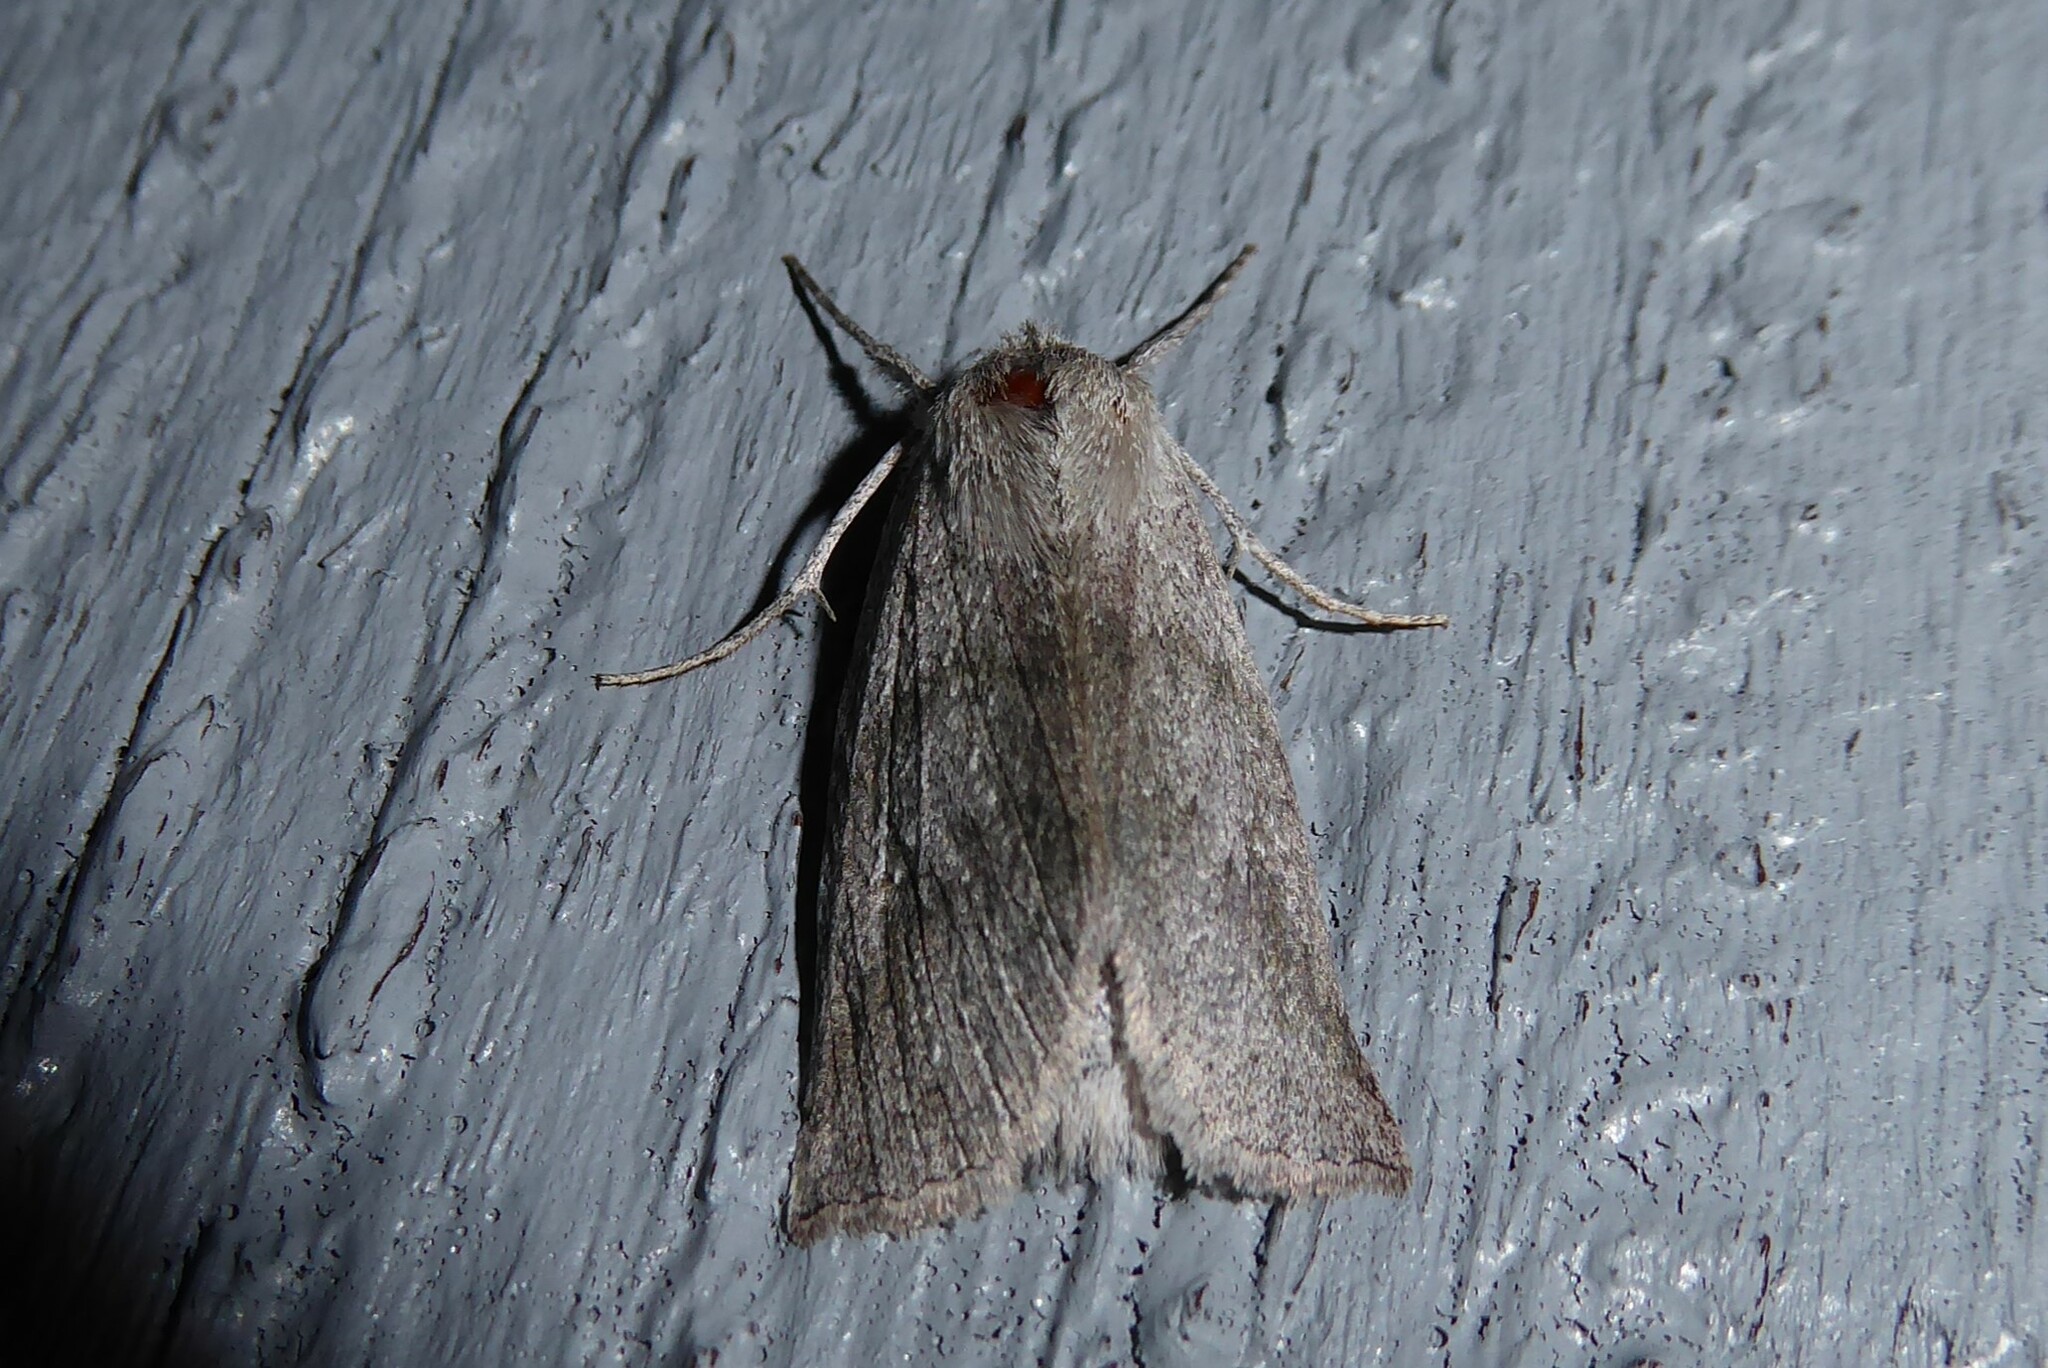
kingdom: Animalia
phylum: Arthropoda
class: Insecta
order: Lepidoptera
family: Geometridae
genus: Declana
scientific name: Declana leptomera
